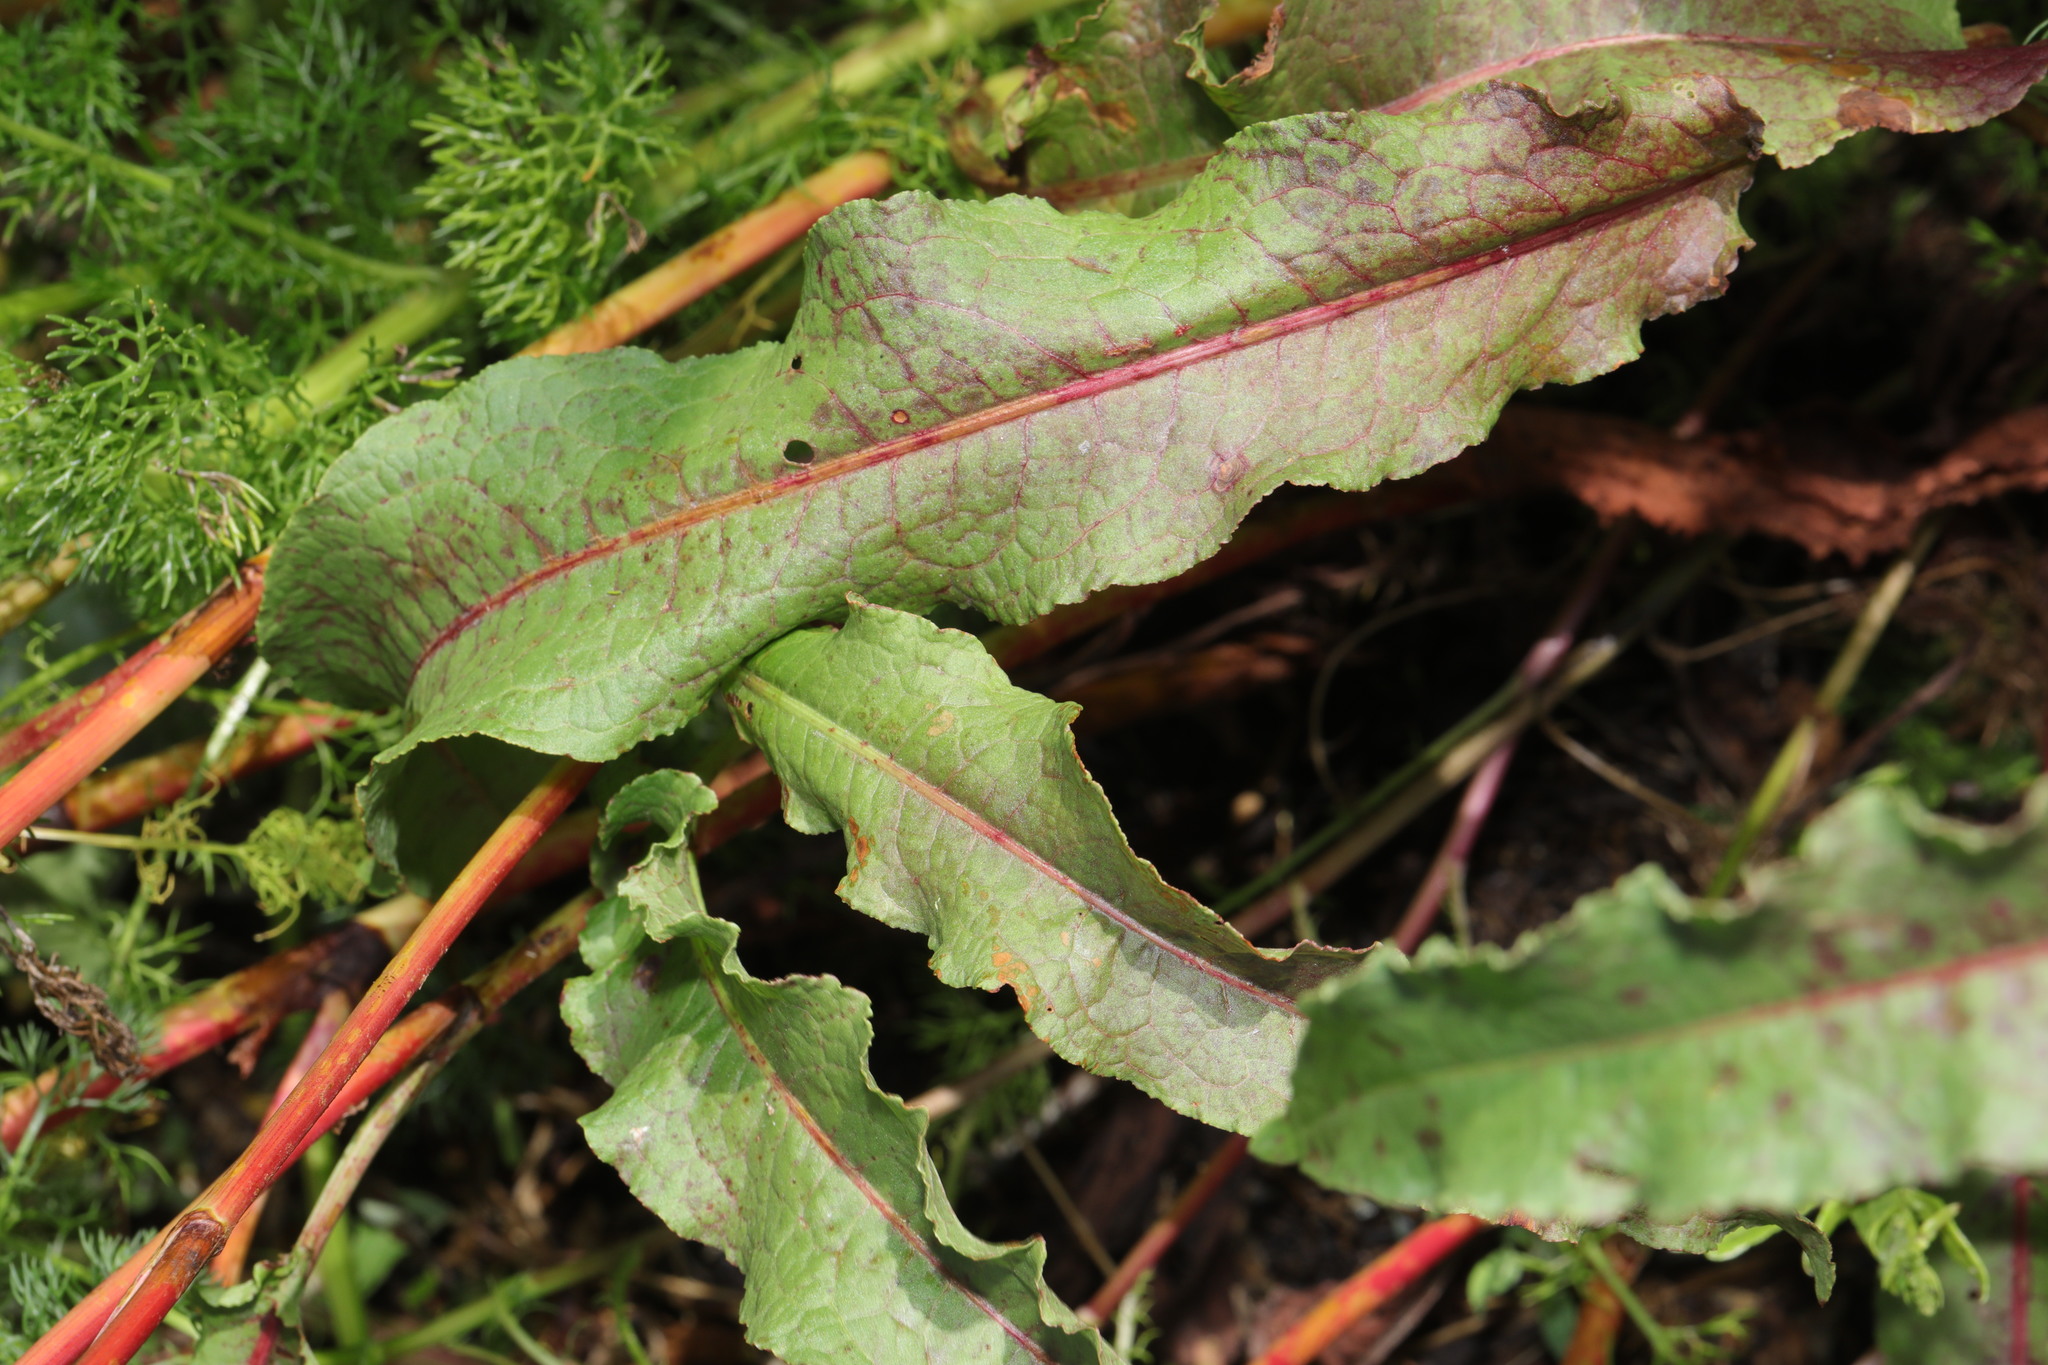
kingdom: Plantae
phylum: Tracheophyta
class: Magnoliopsida
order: Caryophyllales
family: Polygonaceae
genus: Rumex
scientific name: Rumex crispus
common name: Curled dock
